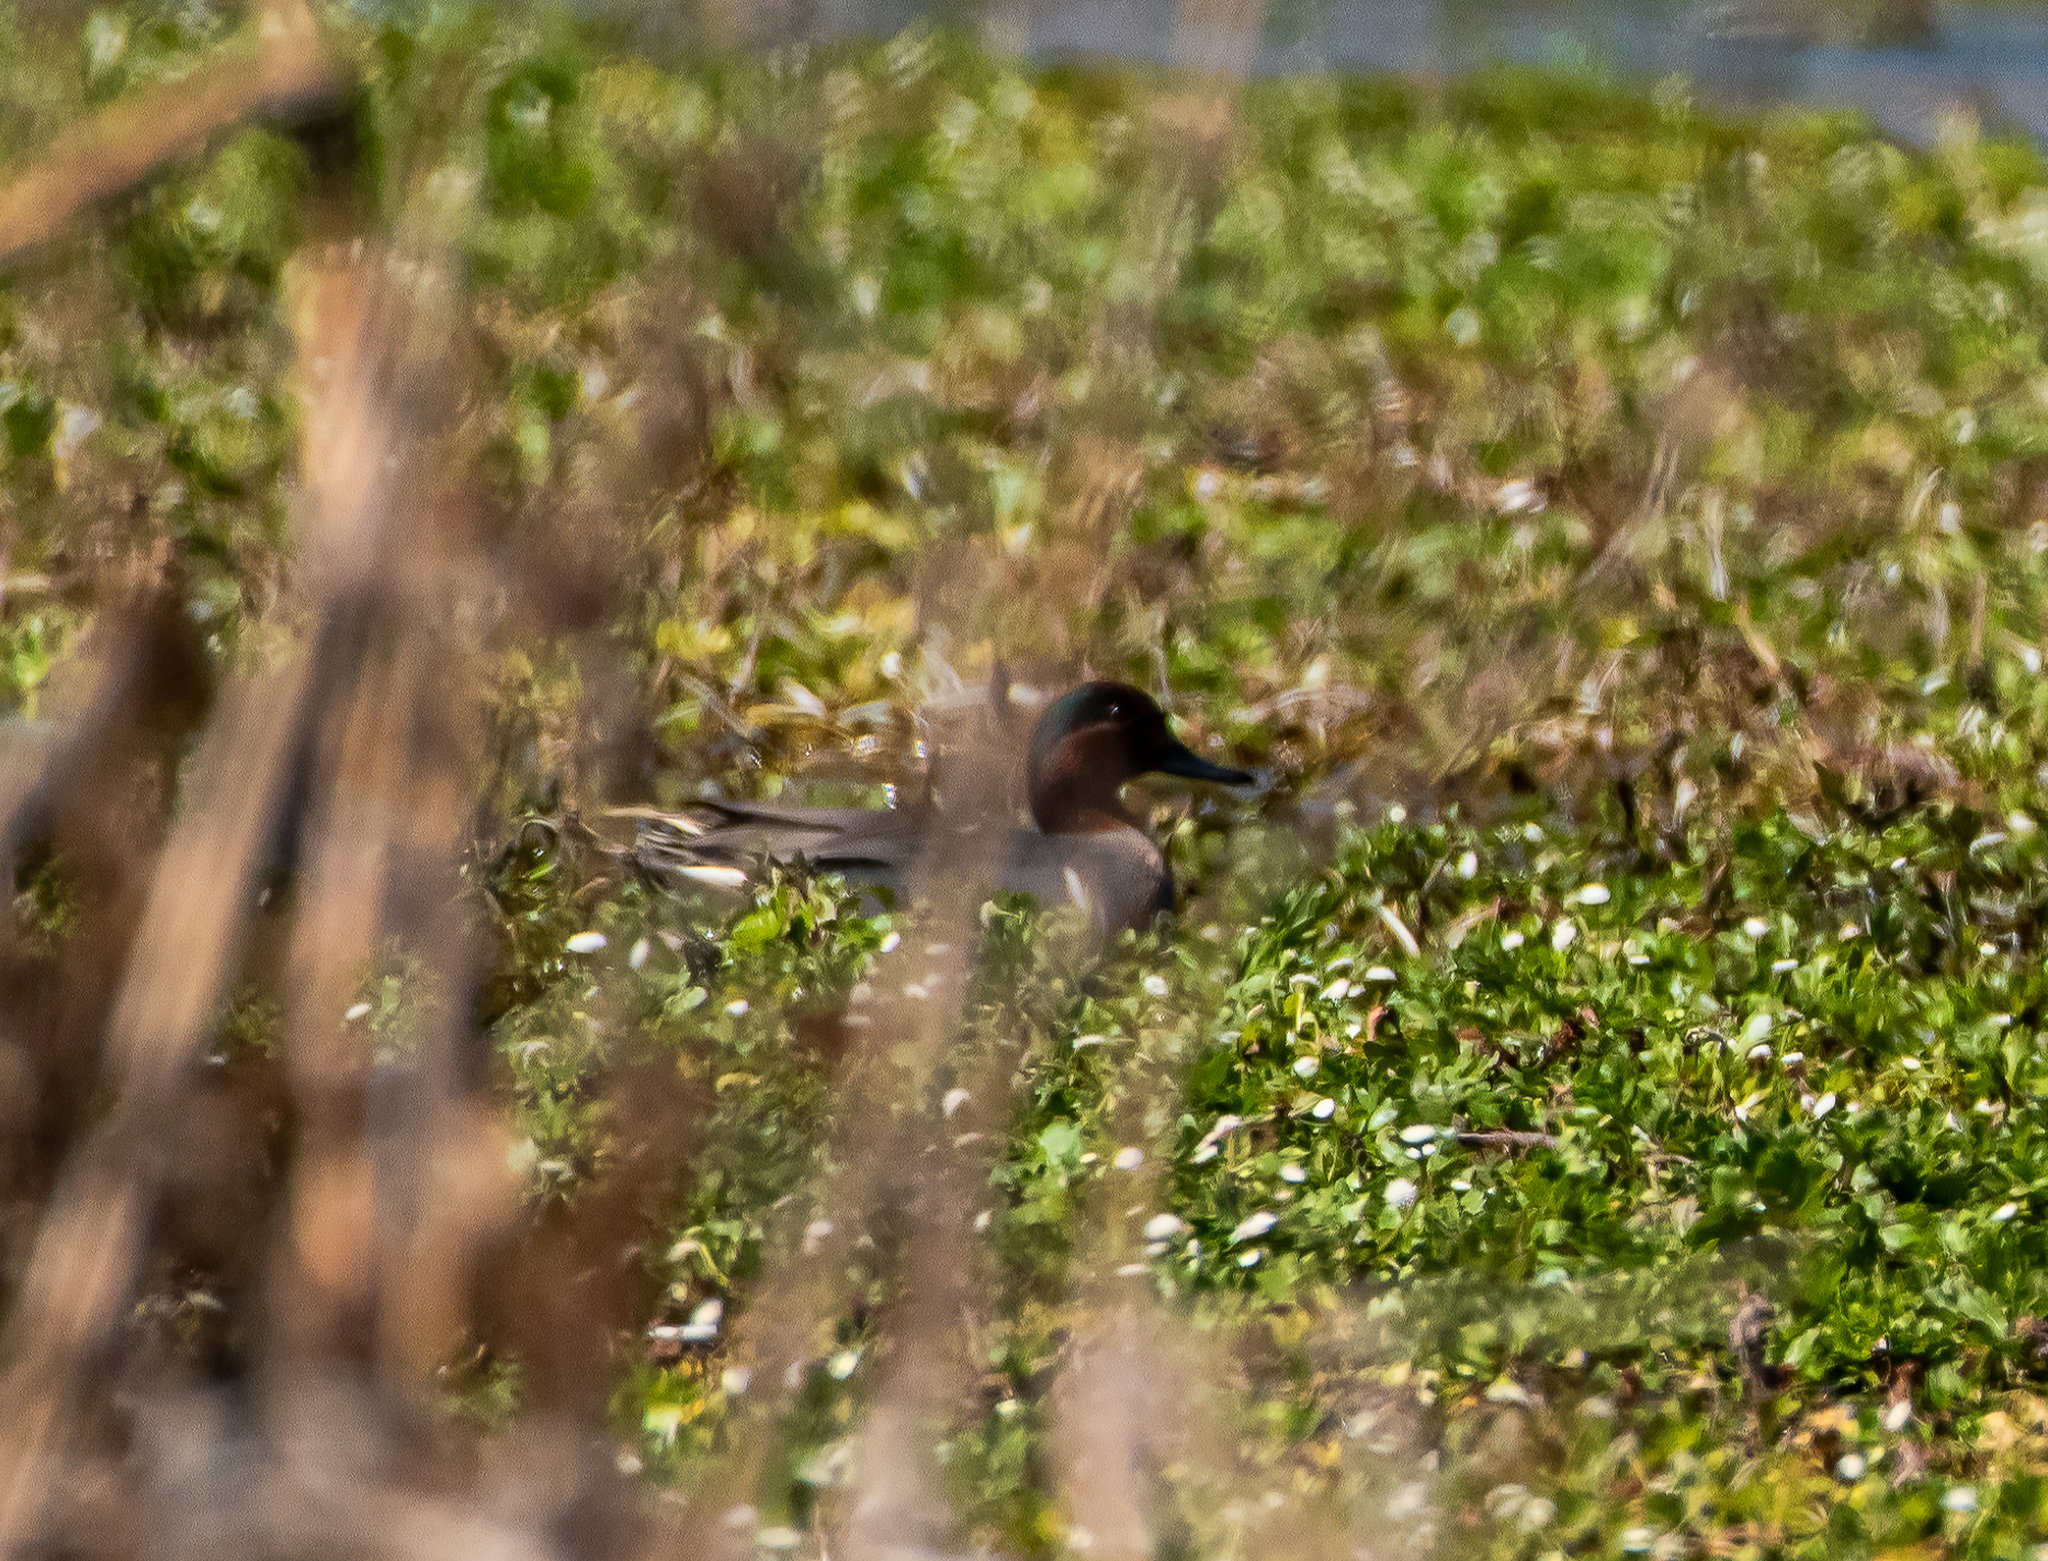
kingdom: Animalia
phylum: Chordata
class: Aves
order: Anseriformes
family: Anatidae
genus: Anas
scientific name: Anas carolinensis
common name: Green-winged teal
